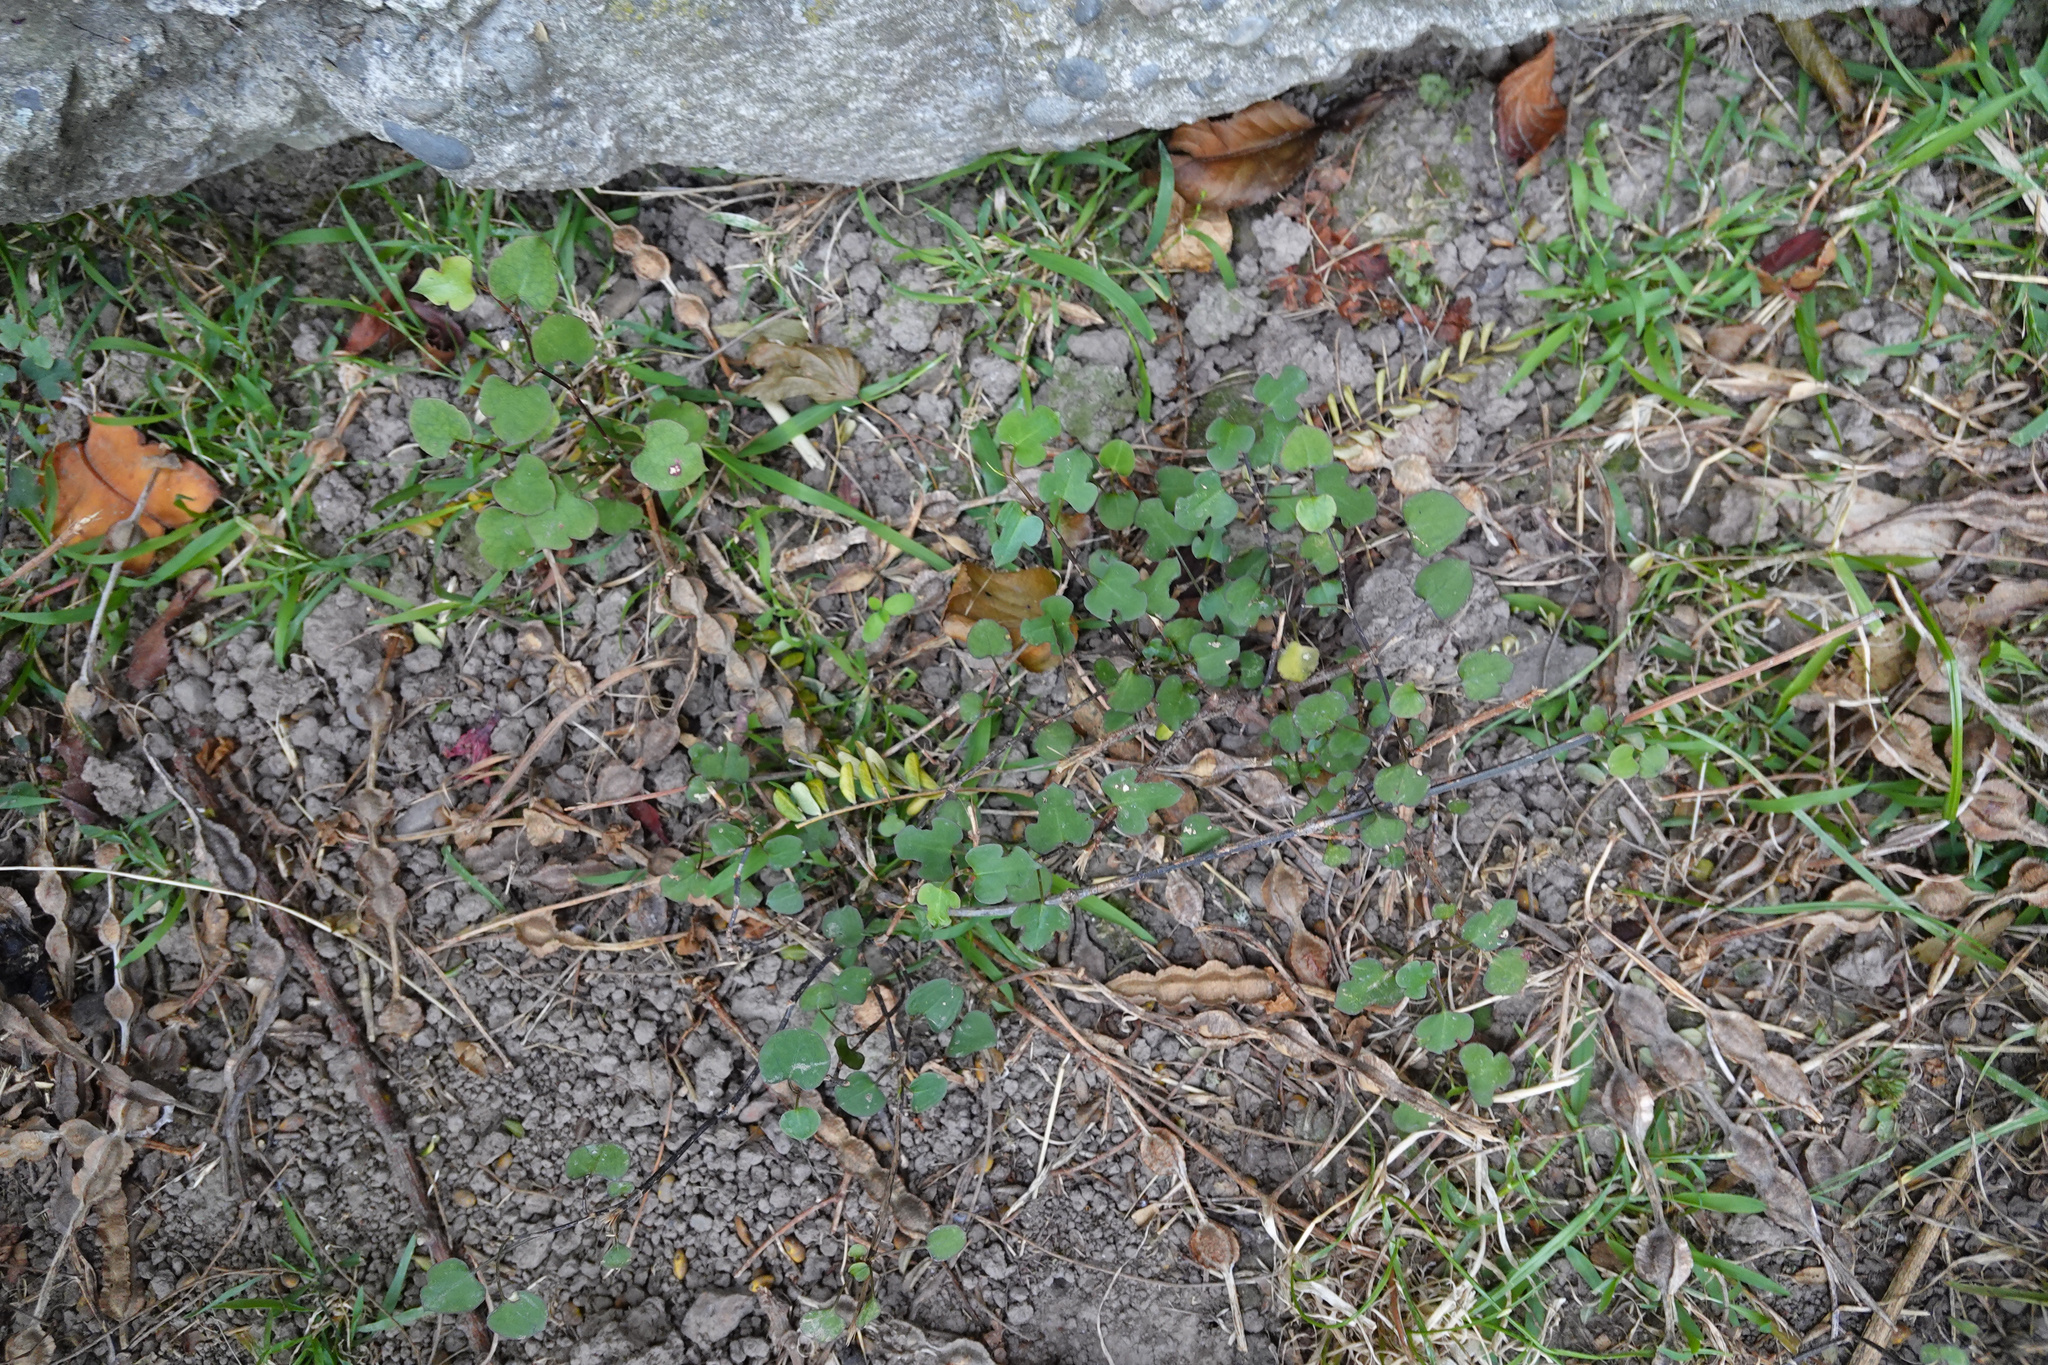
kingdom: Plantae
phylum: Tracheophyta
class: Magnoliopsida
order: Caryophyllales
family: Polygonaceae
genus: Muehlenbeckia
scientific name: Muehlenbeckia australis
